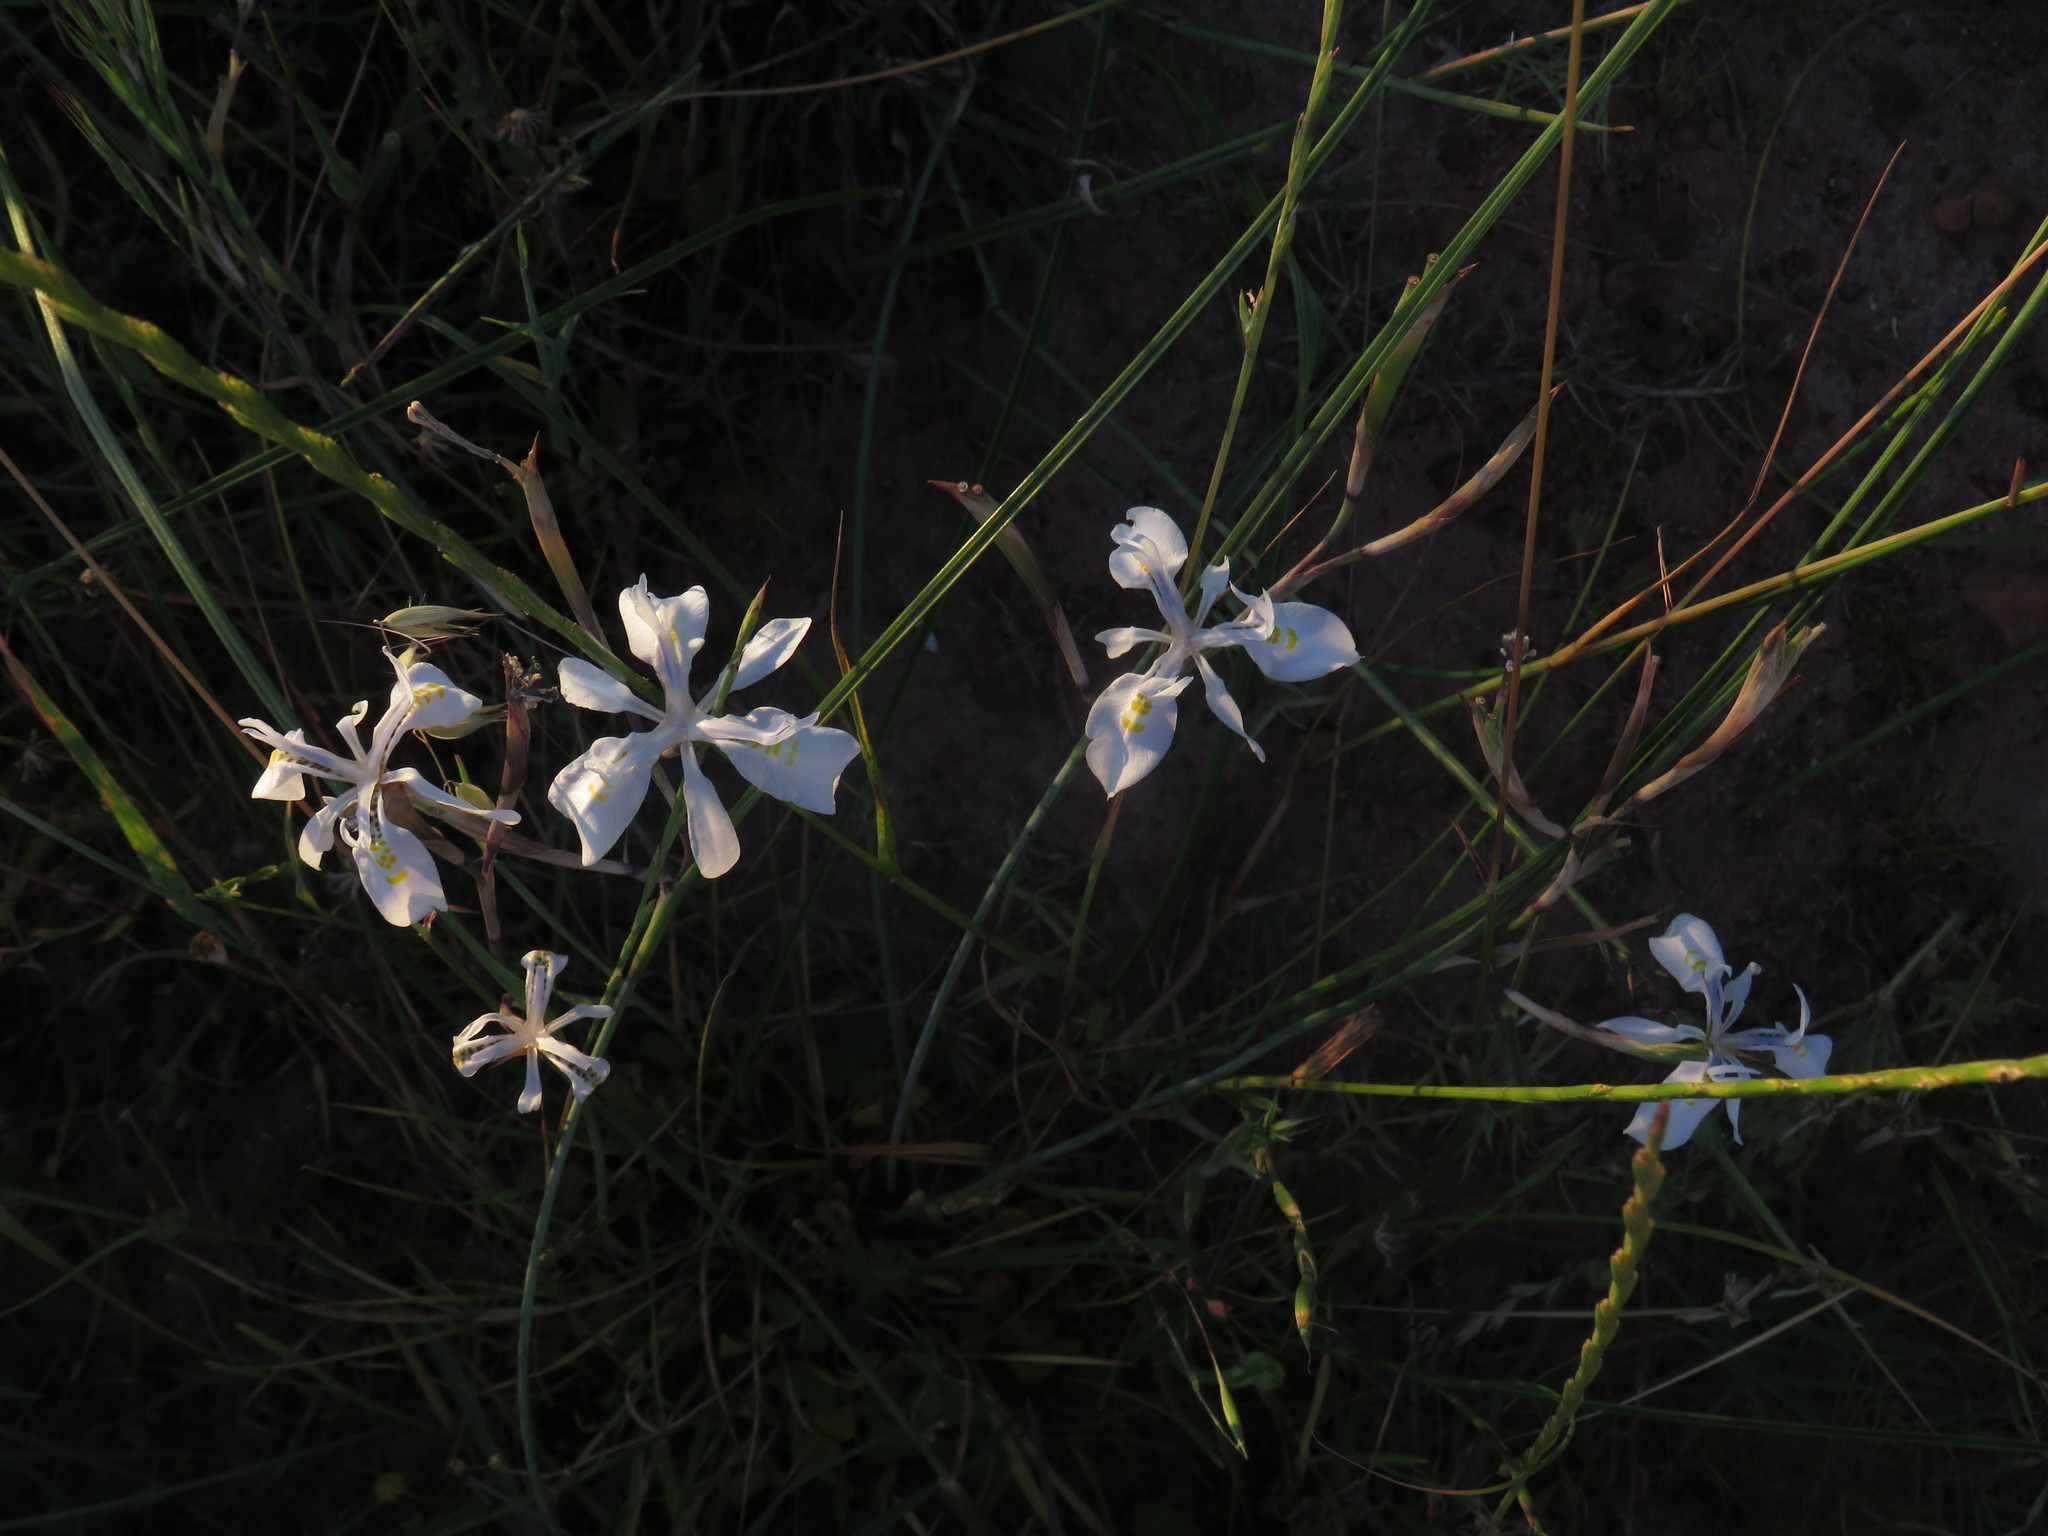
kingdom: Plantae
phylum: Tracheophyta
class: Liliopsida
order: Asparagales
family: Iridaceae
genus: Moraea
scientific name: Moraea fugax
